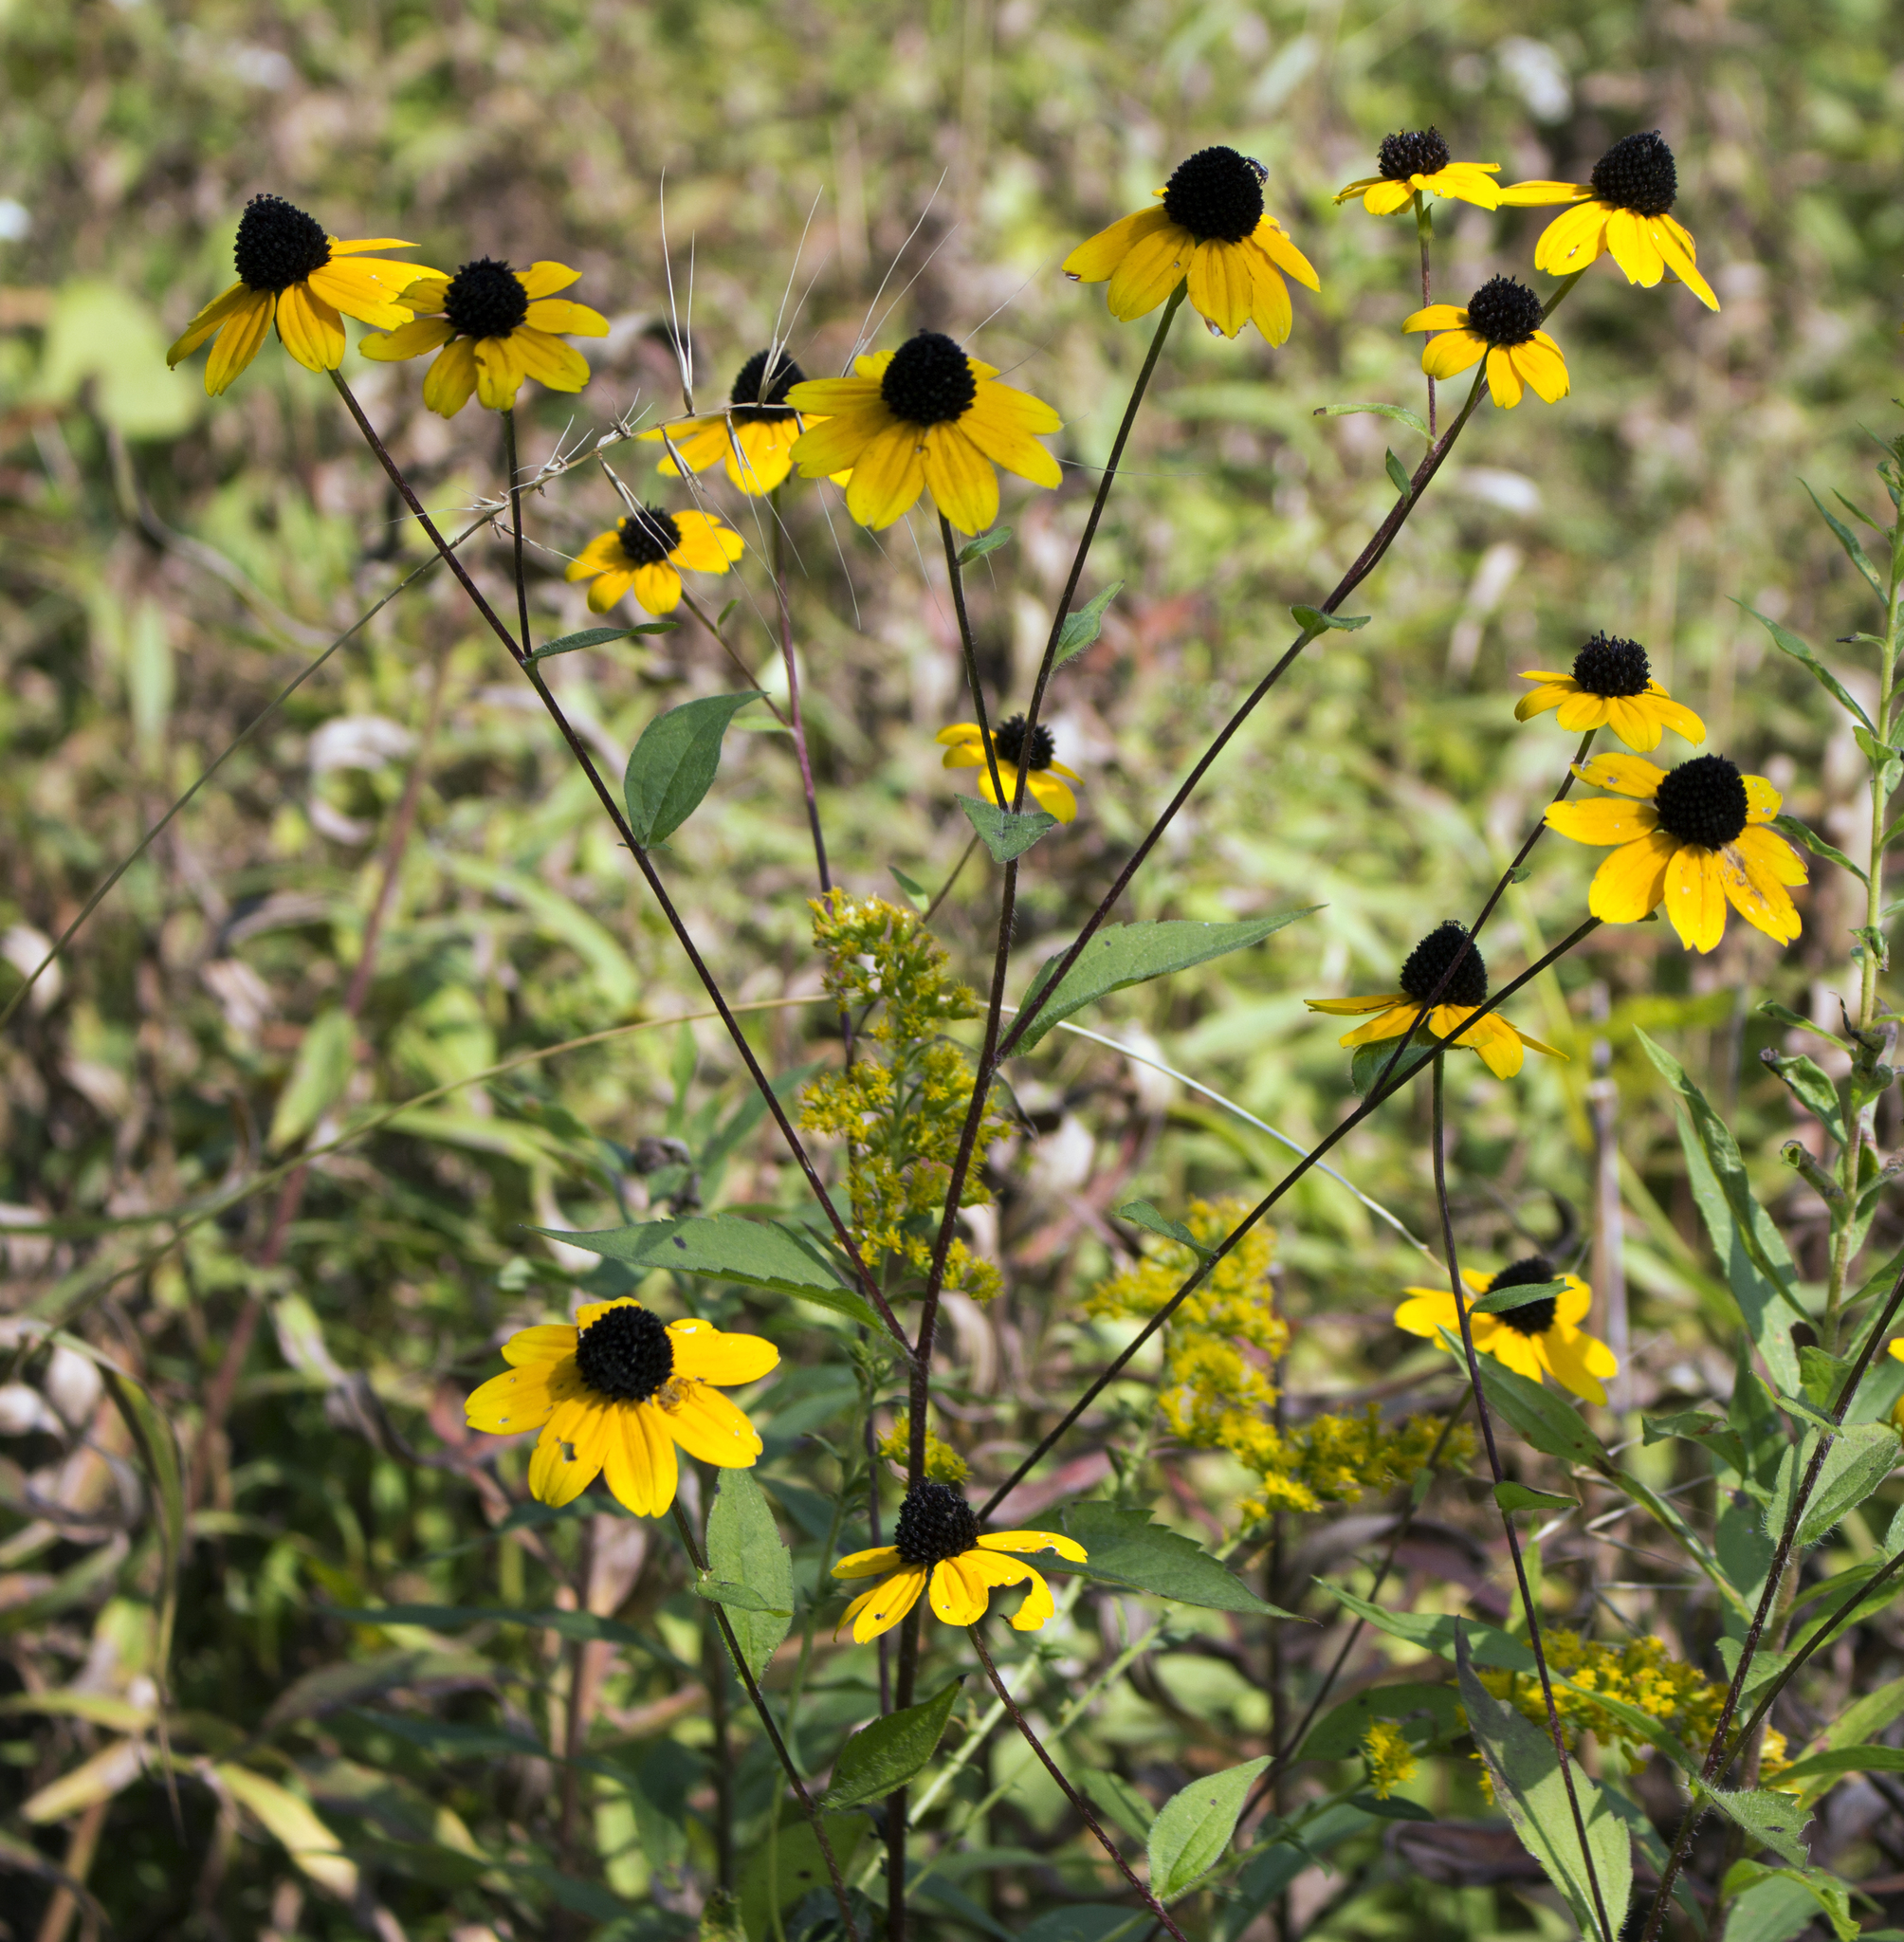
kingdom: Plantae
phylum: Tracheophyta
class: Magnoliopsida
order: Asterales
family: Asteraceae
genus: Rudbeckia
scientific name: Rudbeckia triloba
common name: Thin-leaved coneflower
